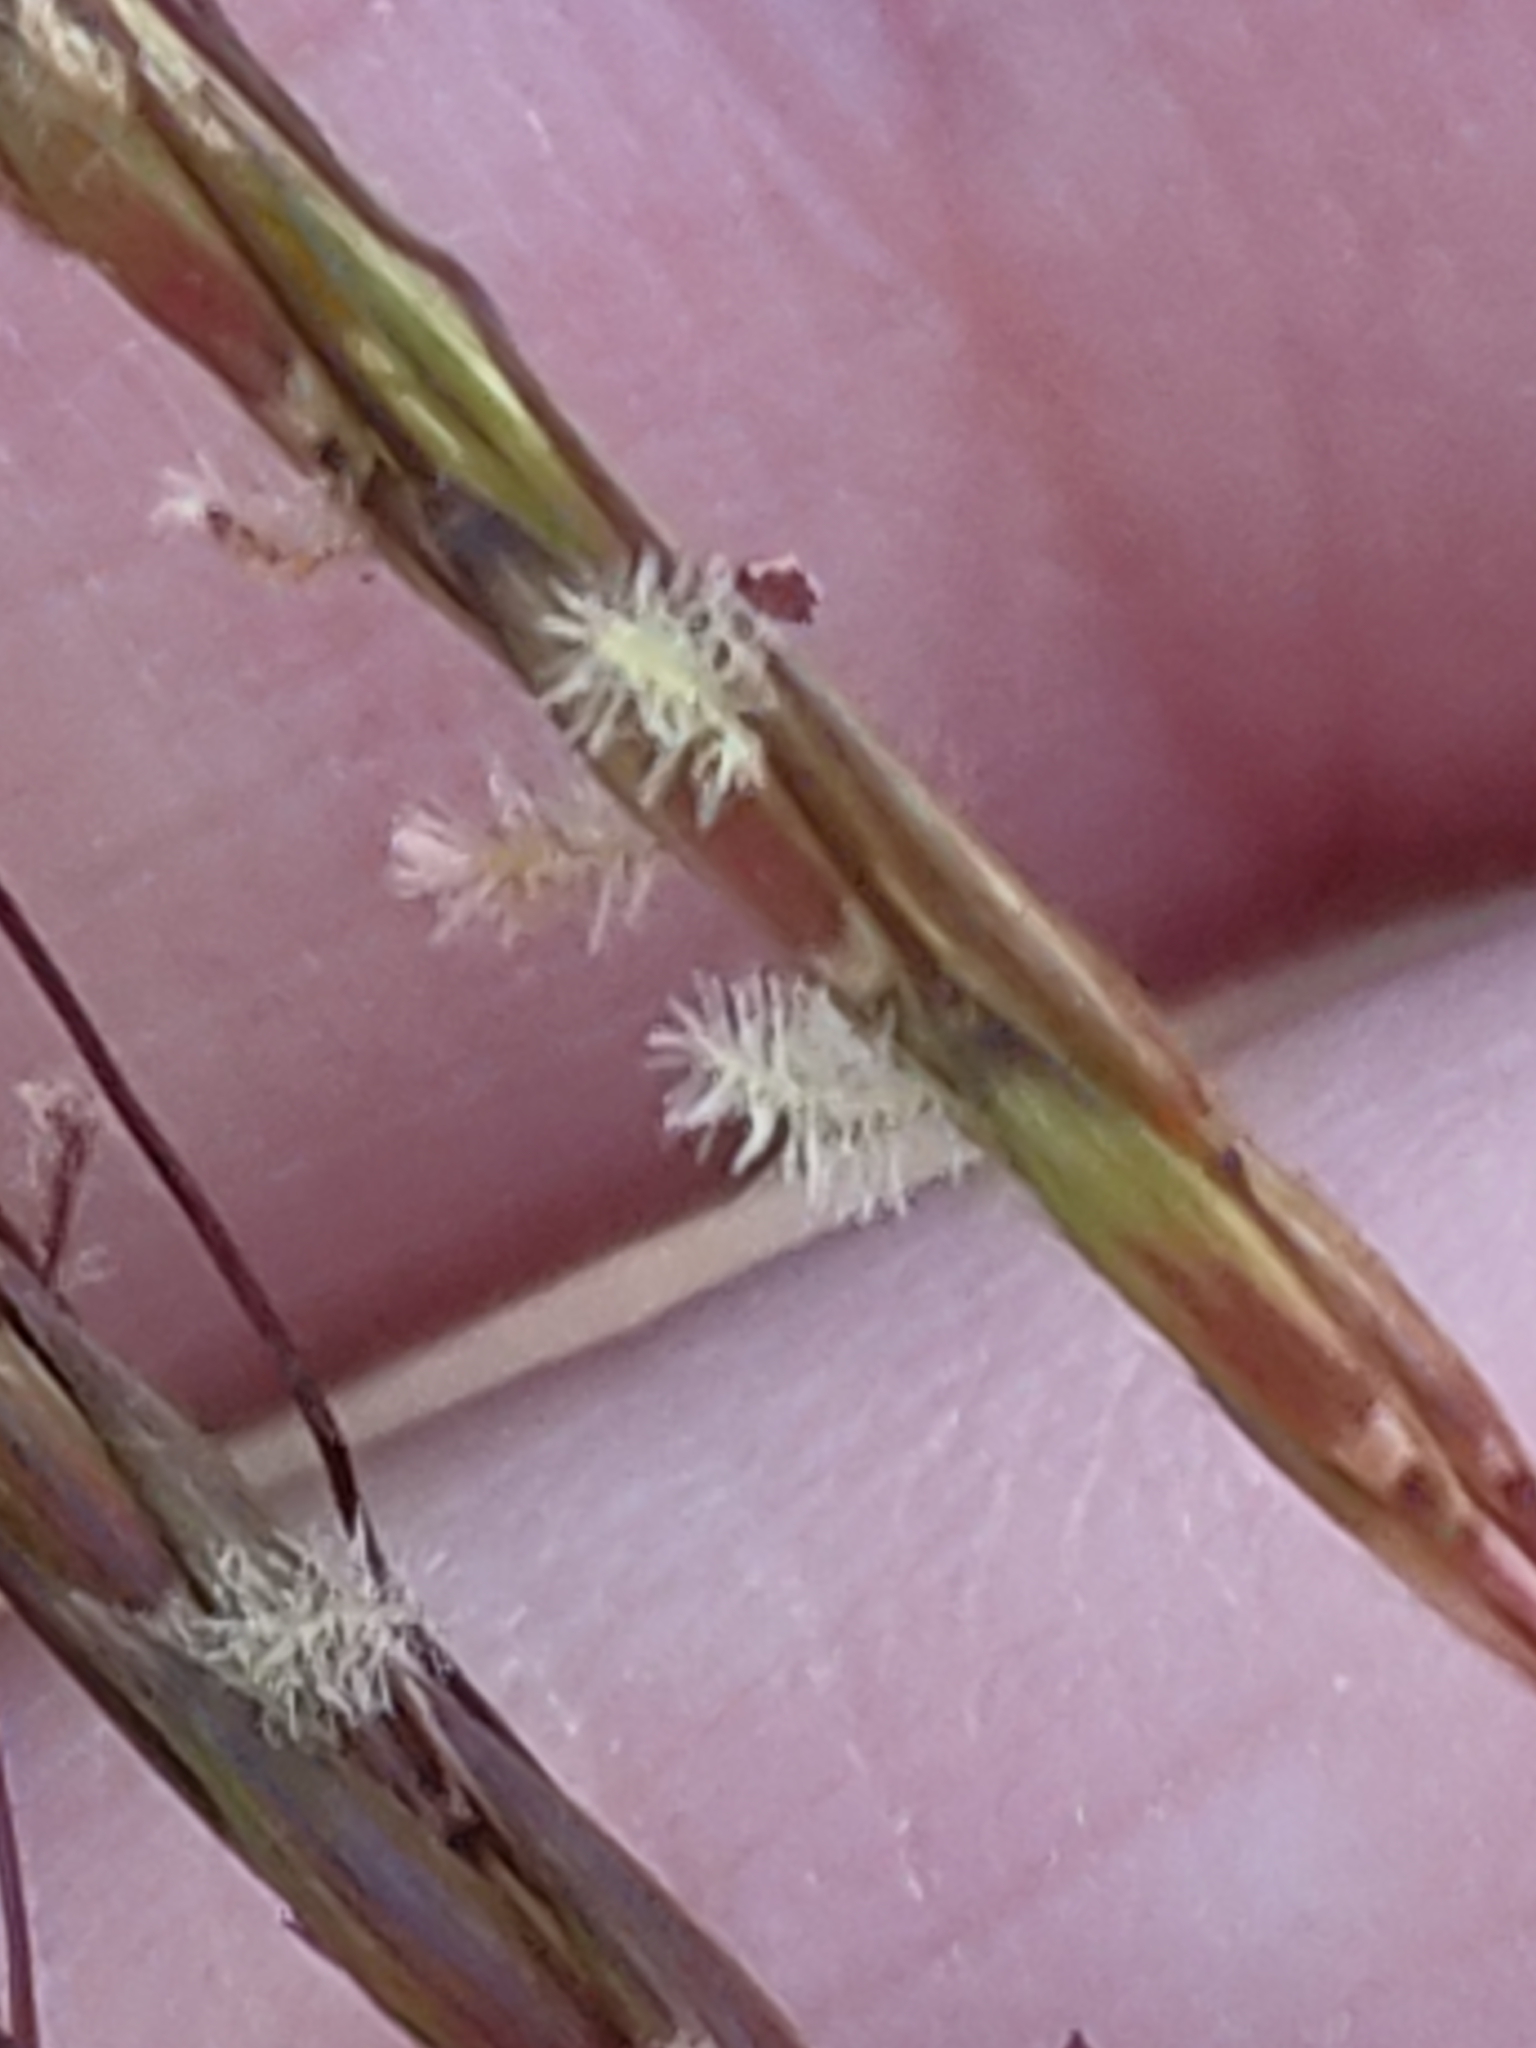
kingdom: Plantae
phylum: Tracheophyta
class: Liliopsida
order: Poales
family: Poaceae
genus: Hyparrhenia
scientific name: Hyparrhenia hirta
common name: Thatching grass
